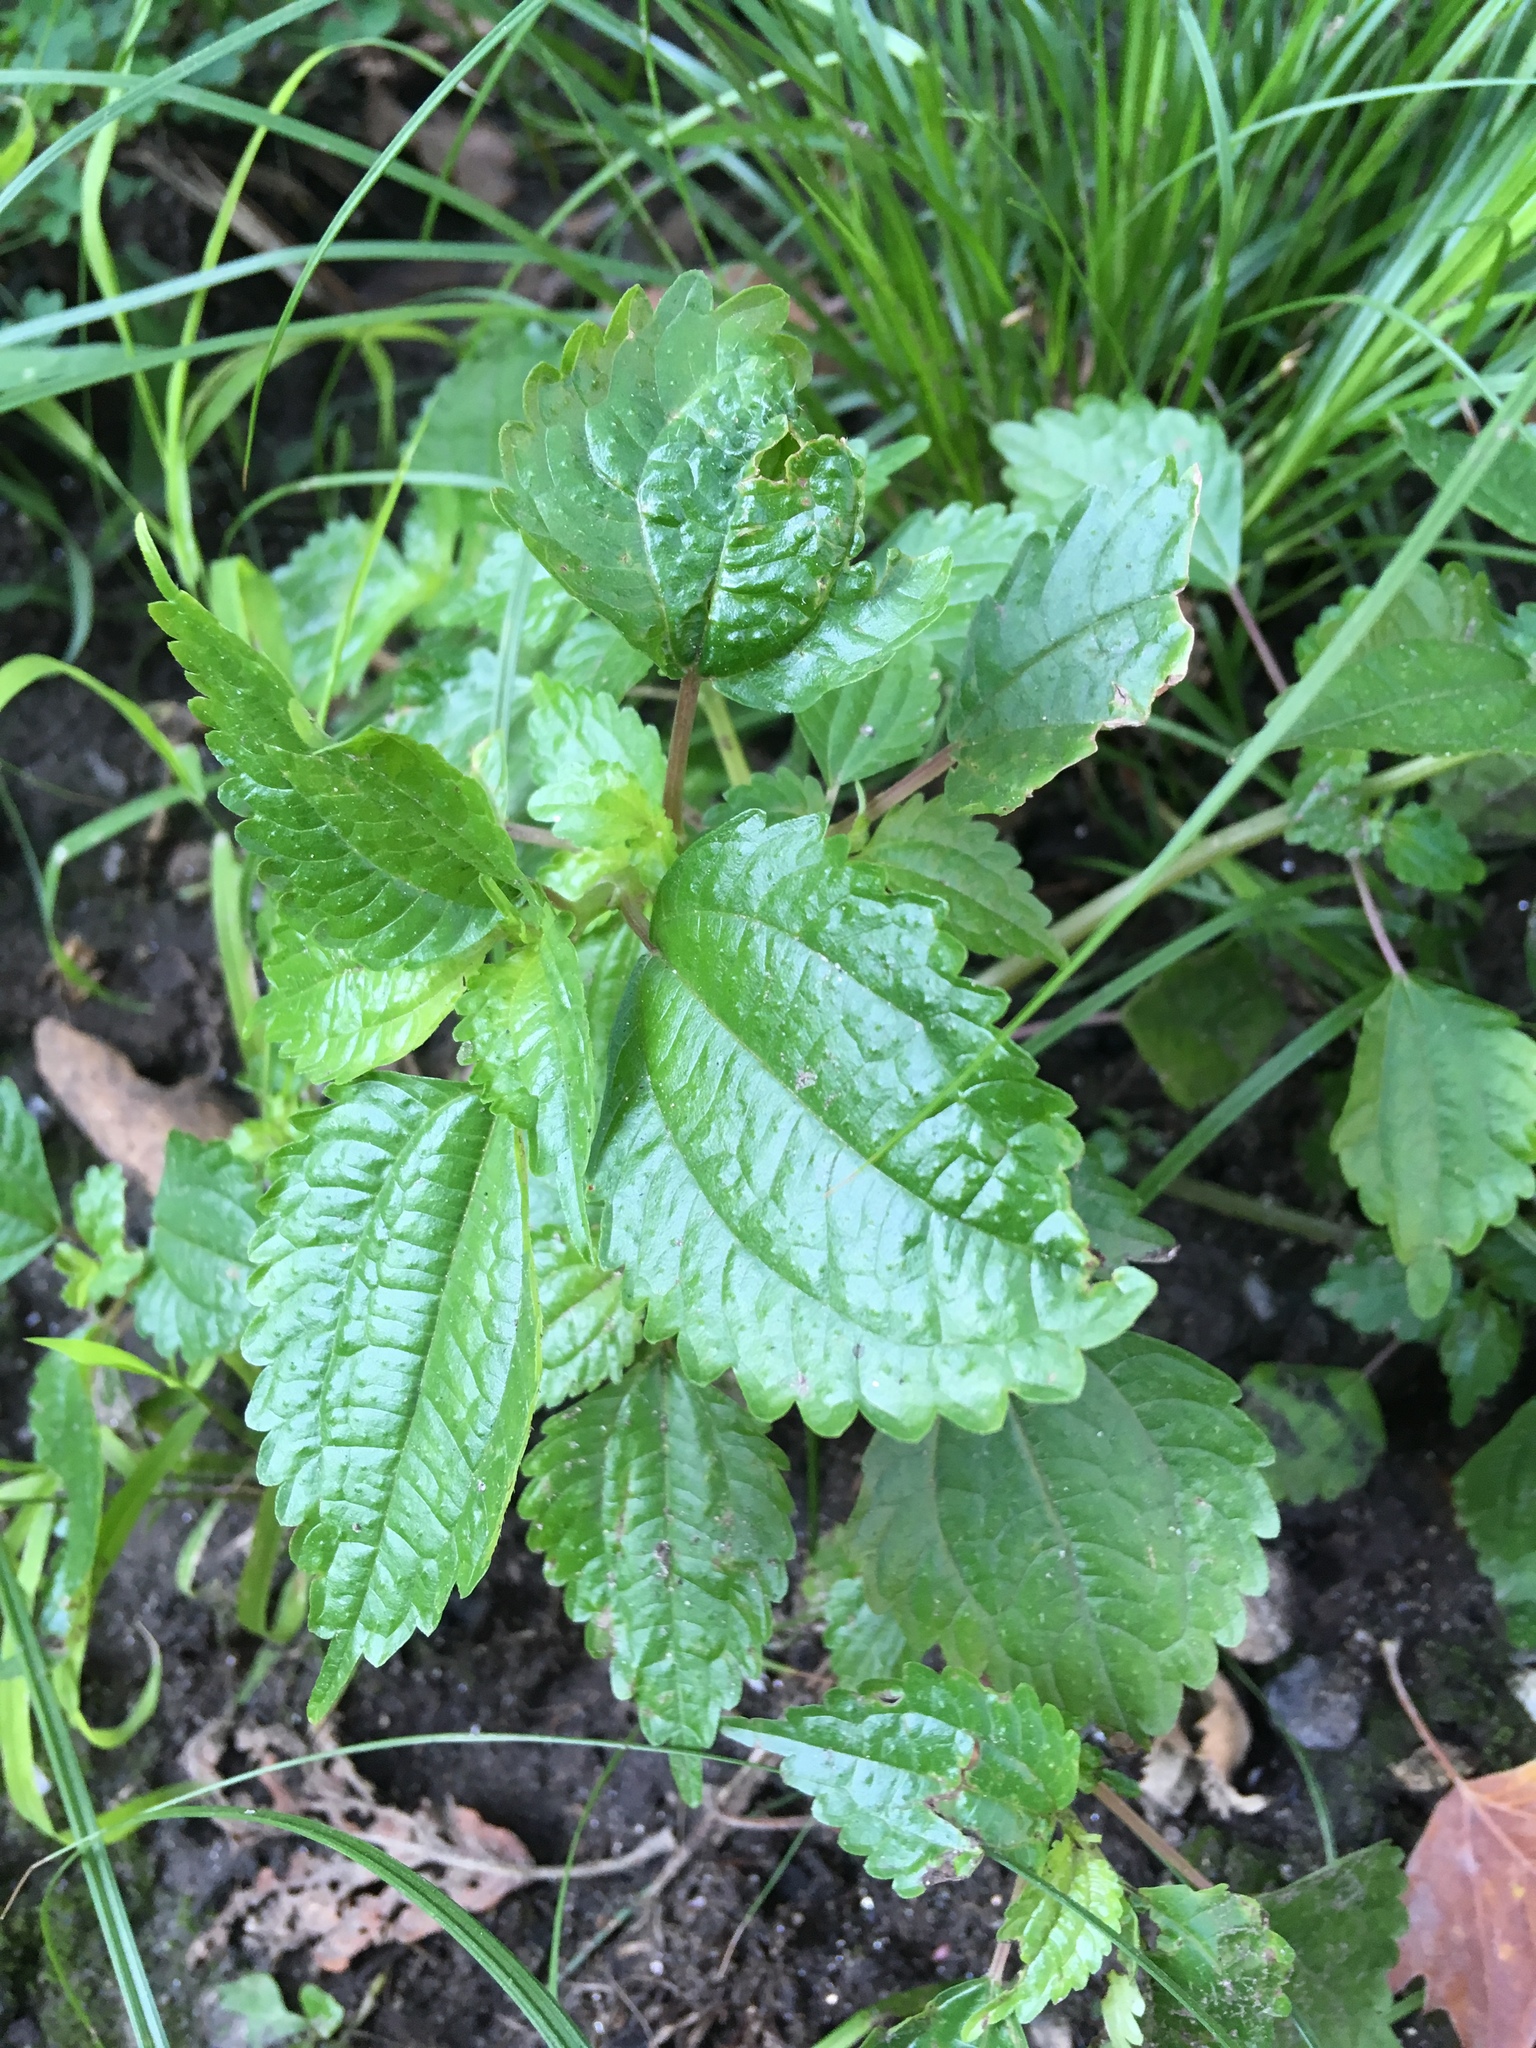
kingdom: Plantae
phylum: Tracheophyta
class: Magnoliopsida
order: Rosales
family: Urticaceae
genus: Pilea
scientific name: Pilea pumila
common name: Clearweed
